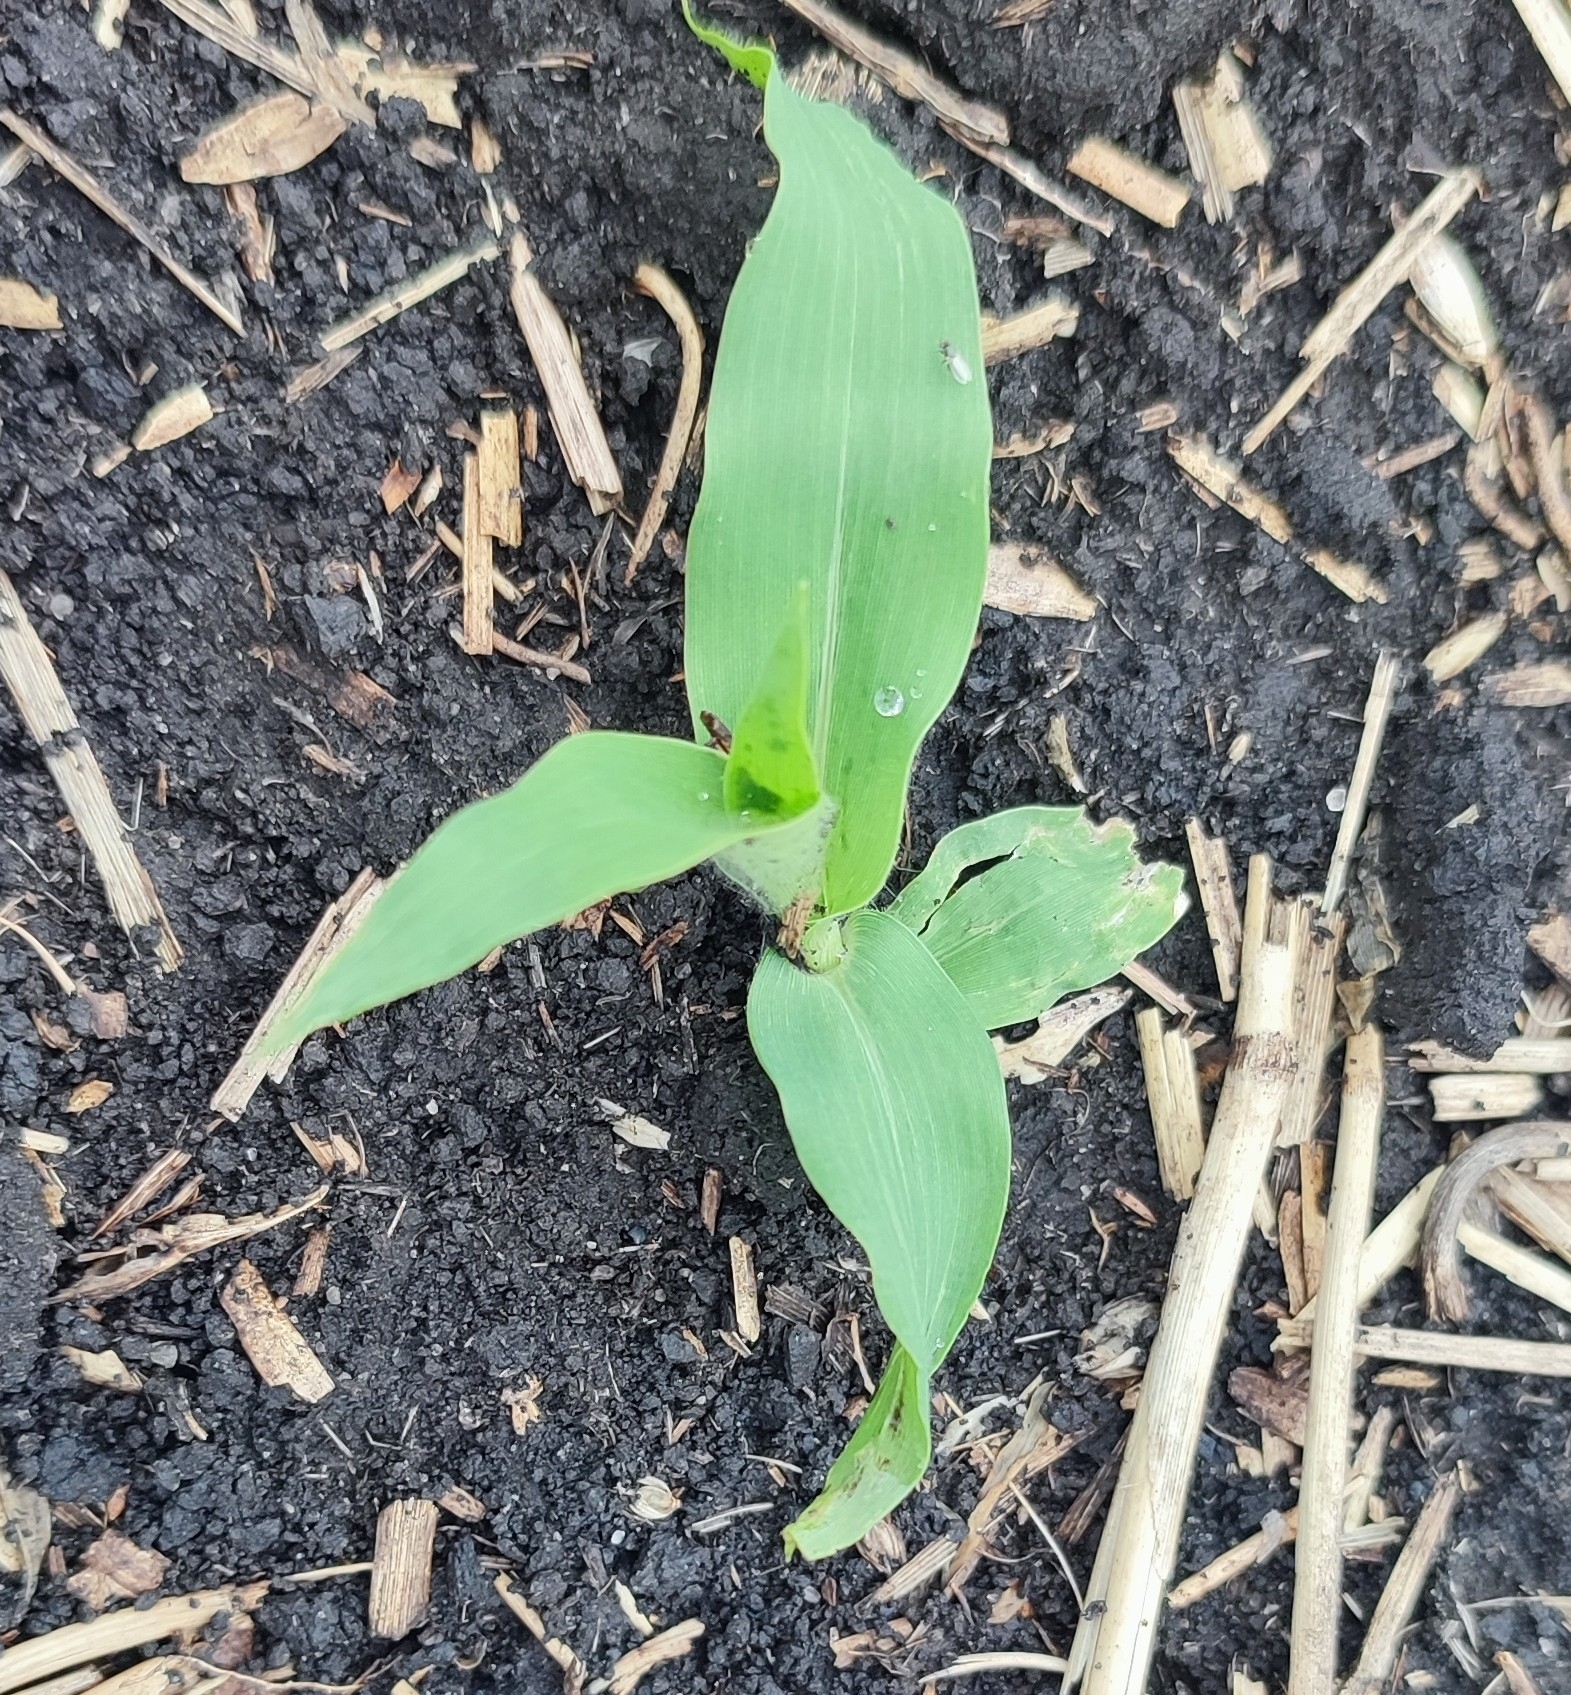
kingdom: Plantae
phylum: Tracheophyta
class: Liliopsida
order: Poales
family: Poaceae
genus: Panicum
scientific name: Panicum miliaceum
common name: Common millet
